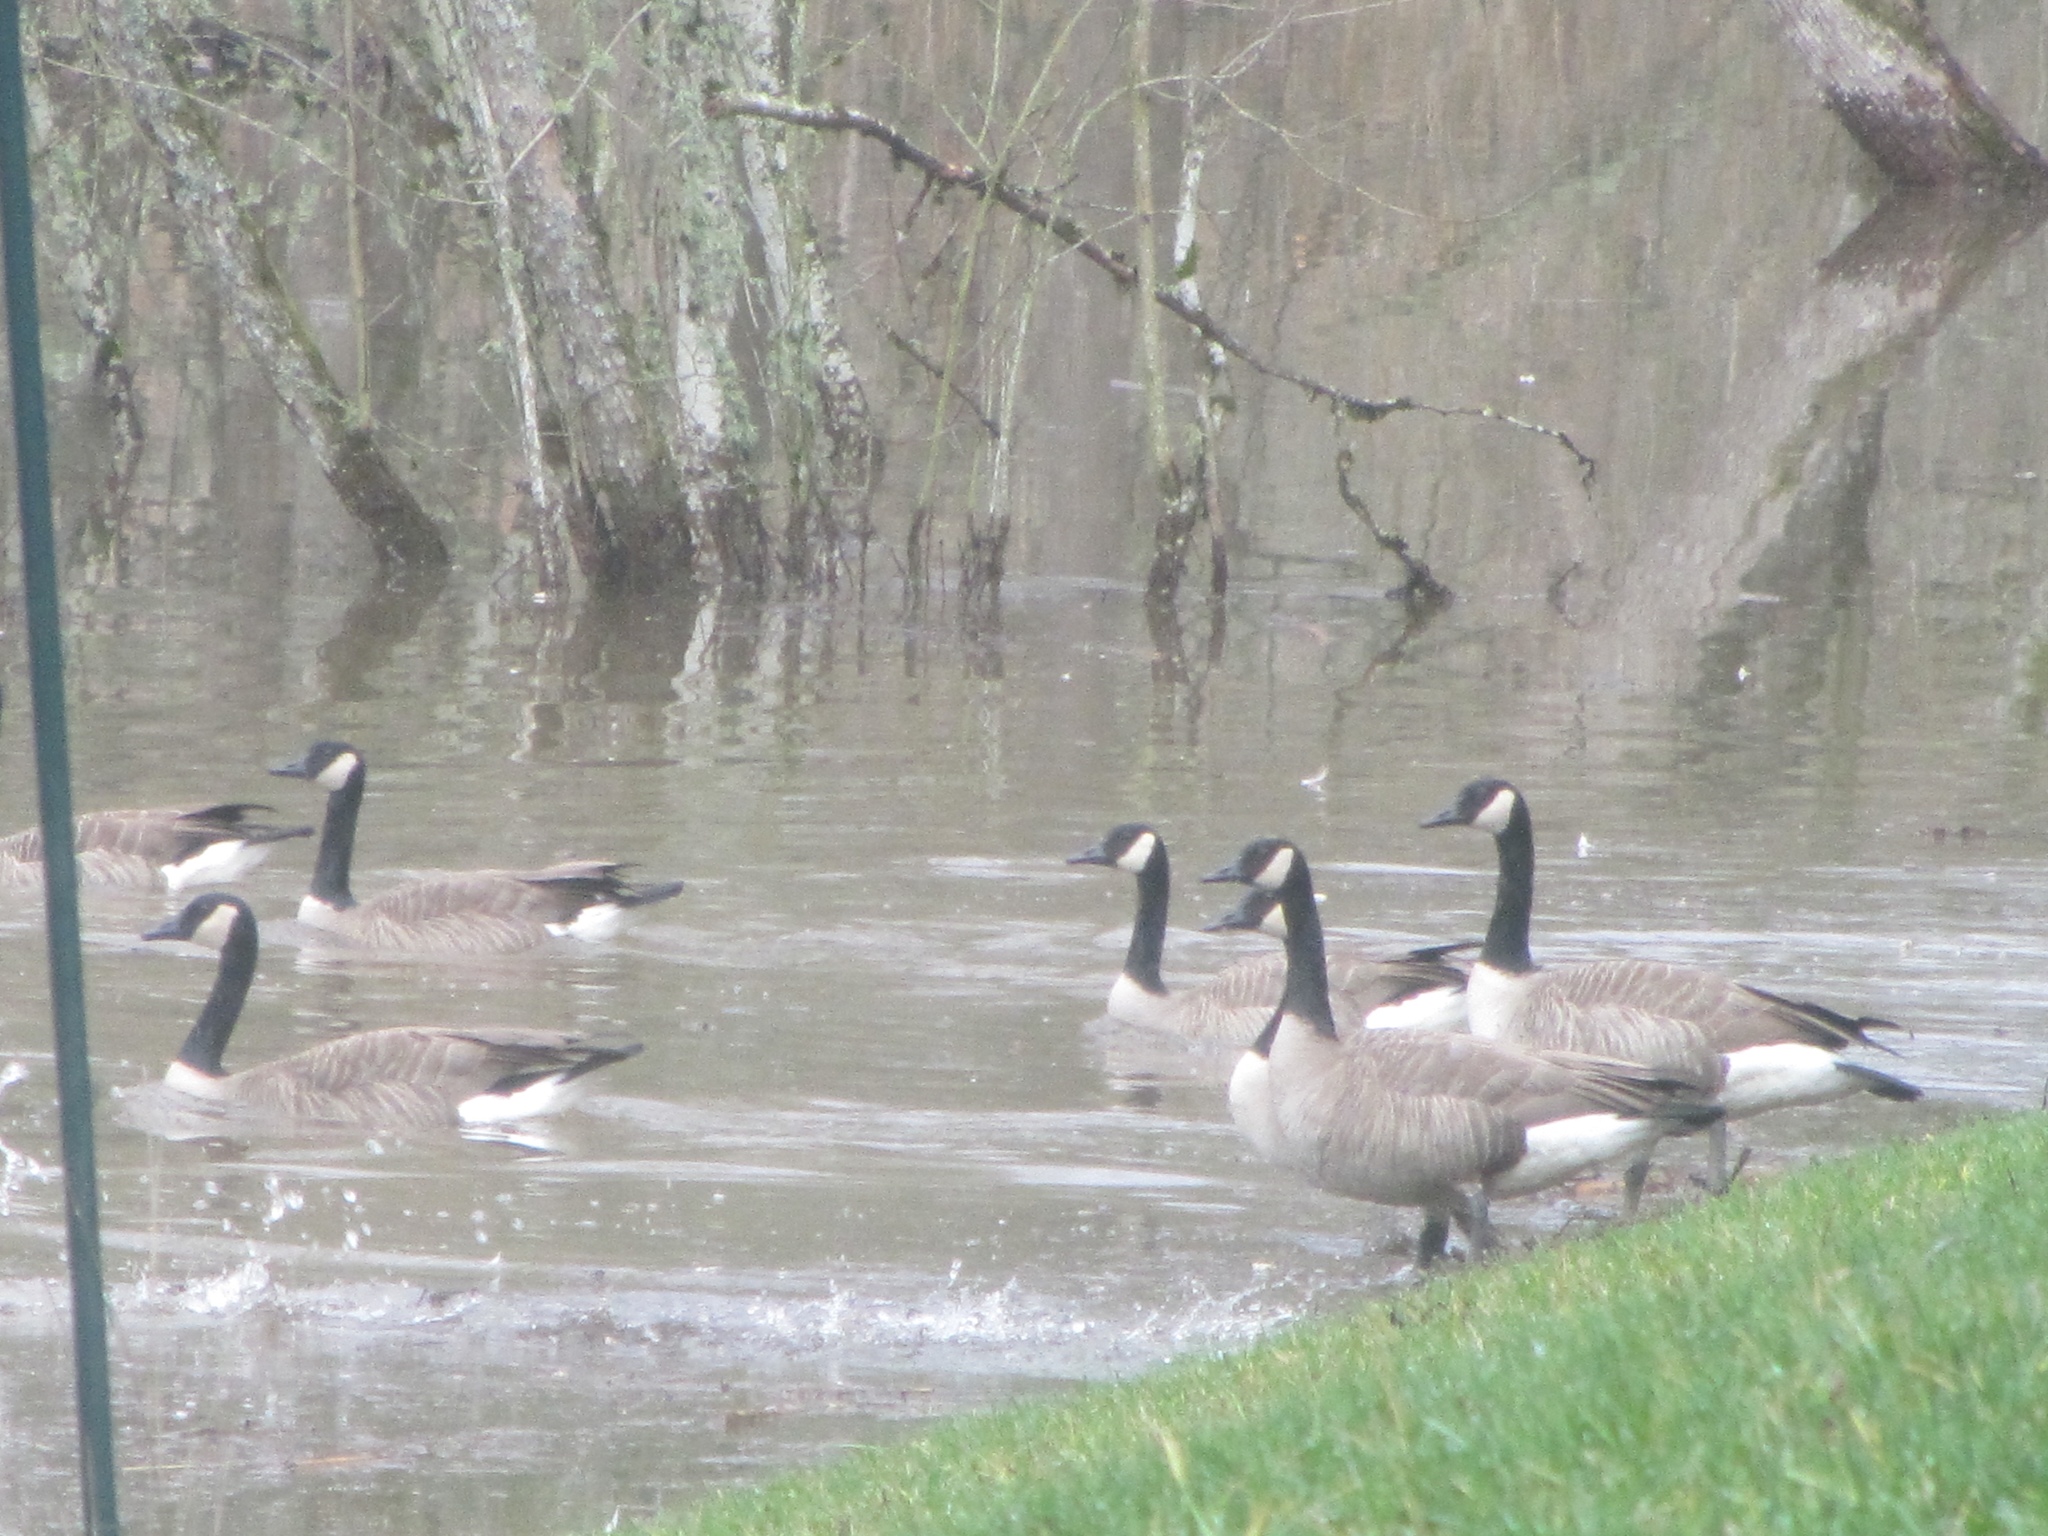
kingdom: Animalia
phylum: Chordata
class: Aves
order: Anseriformes
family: Anatidae
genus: Branta
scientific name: Branta canadensis
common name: Canada goose
